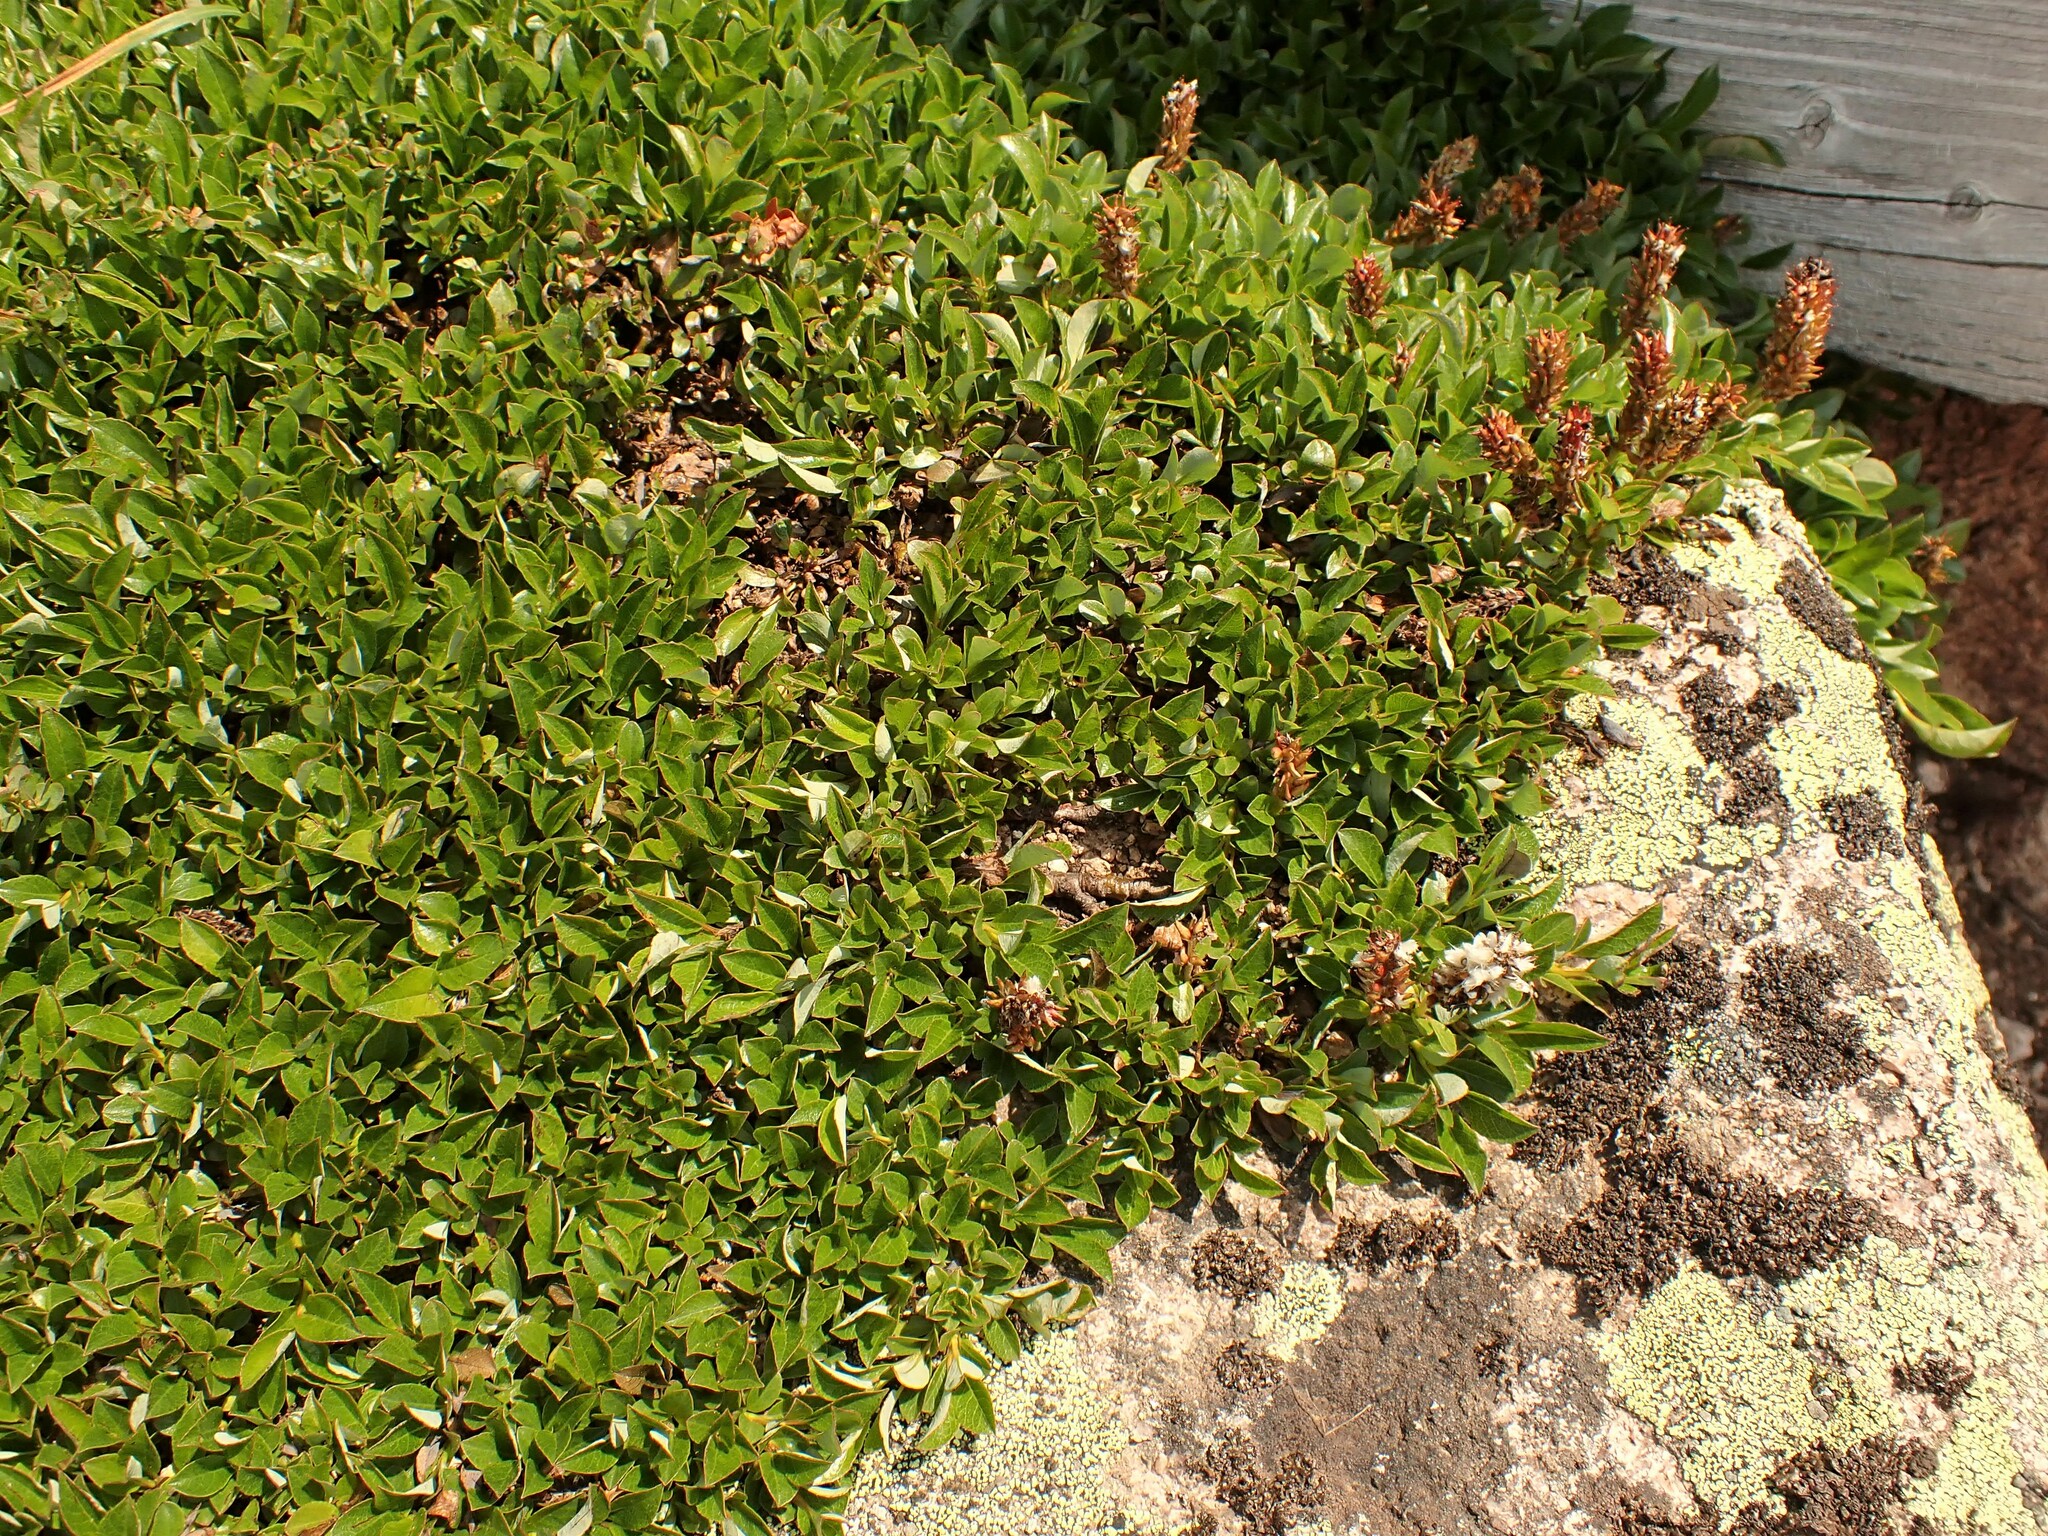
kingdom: Plantae
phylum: Tracheophyta
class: Magnoliopsida
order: Malpighiales
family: Salicaceae
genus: Salix
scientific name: Salix uva-ursi
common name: Bearberry willow
